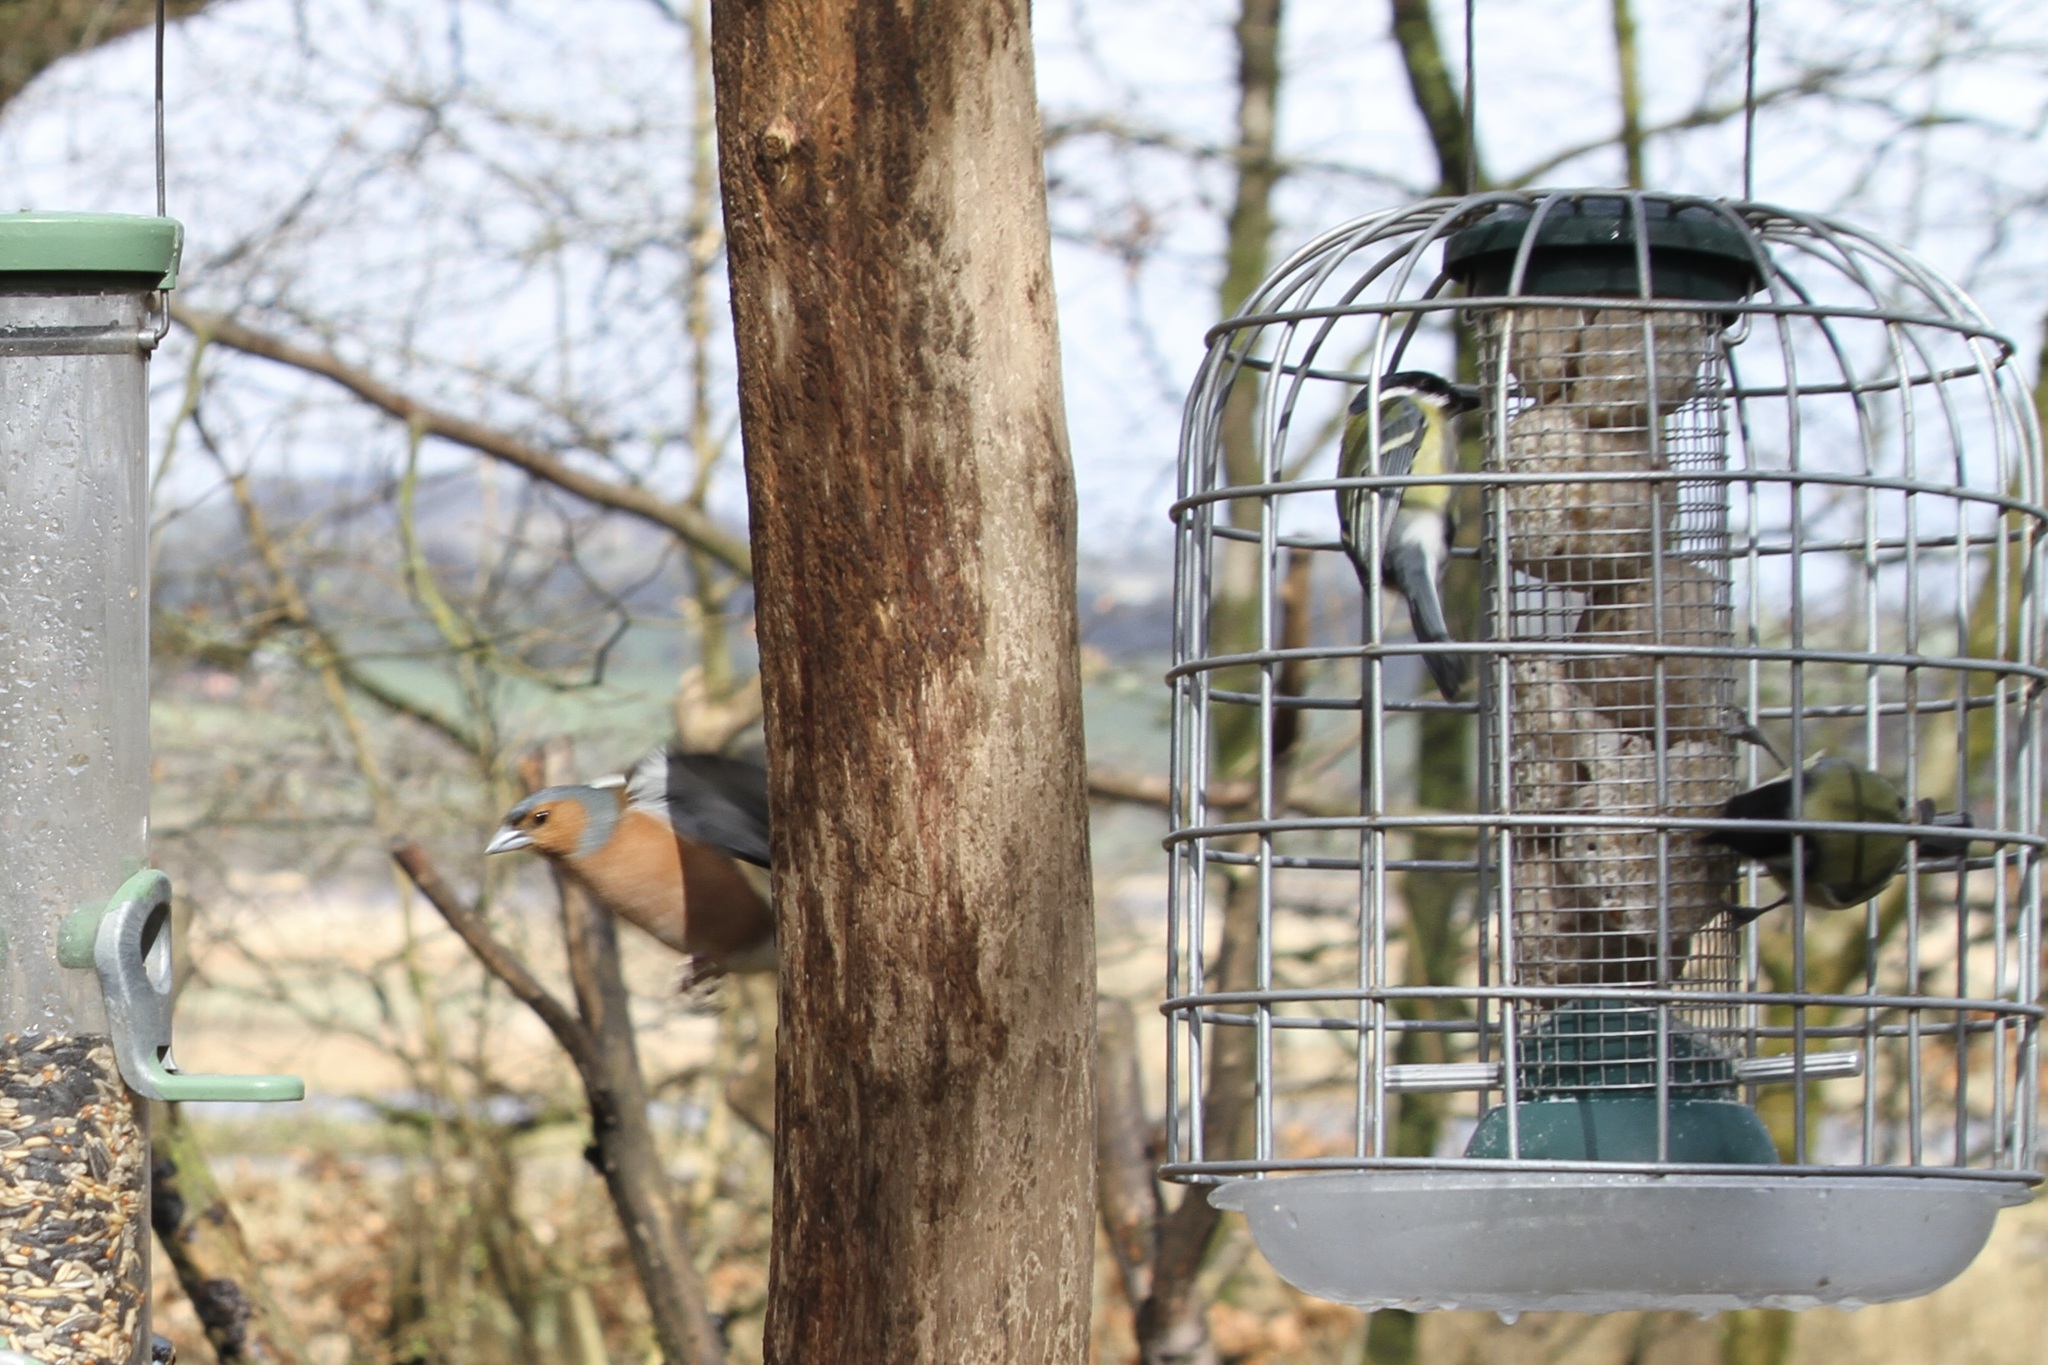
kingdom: Animalia
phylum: Chordata
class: Aves
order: Passeriformes
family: Paridae
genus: Parus
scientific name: Parus major
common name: Great tit
